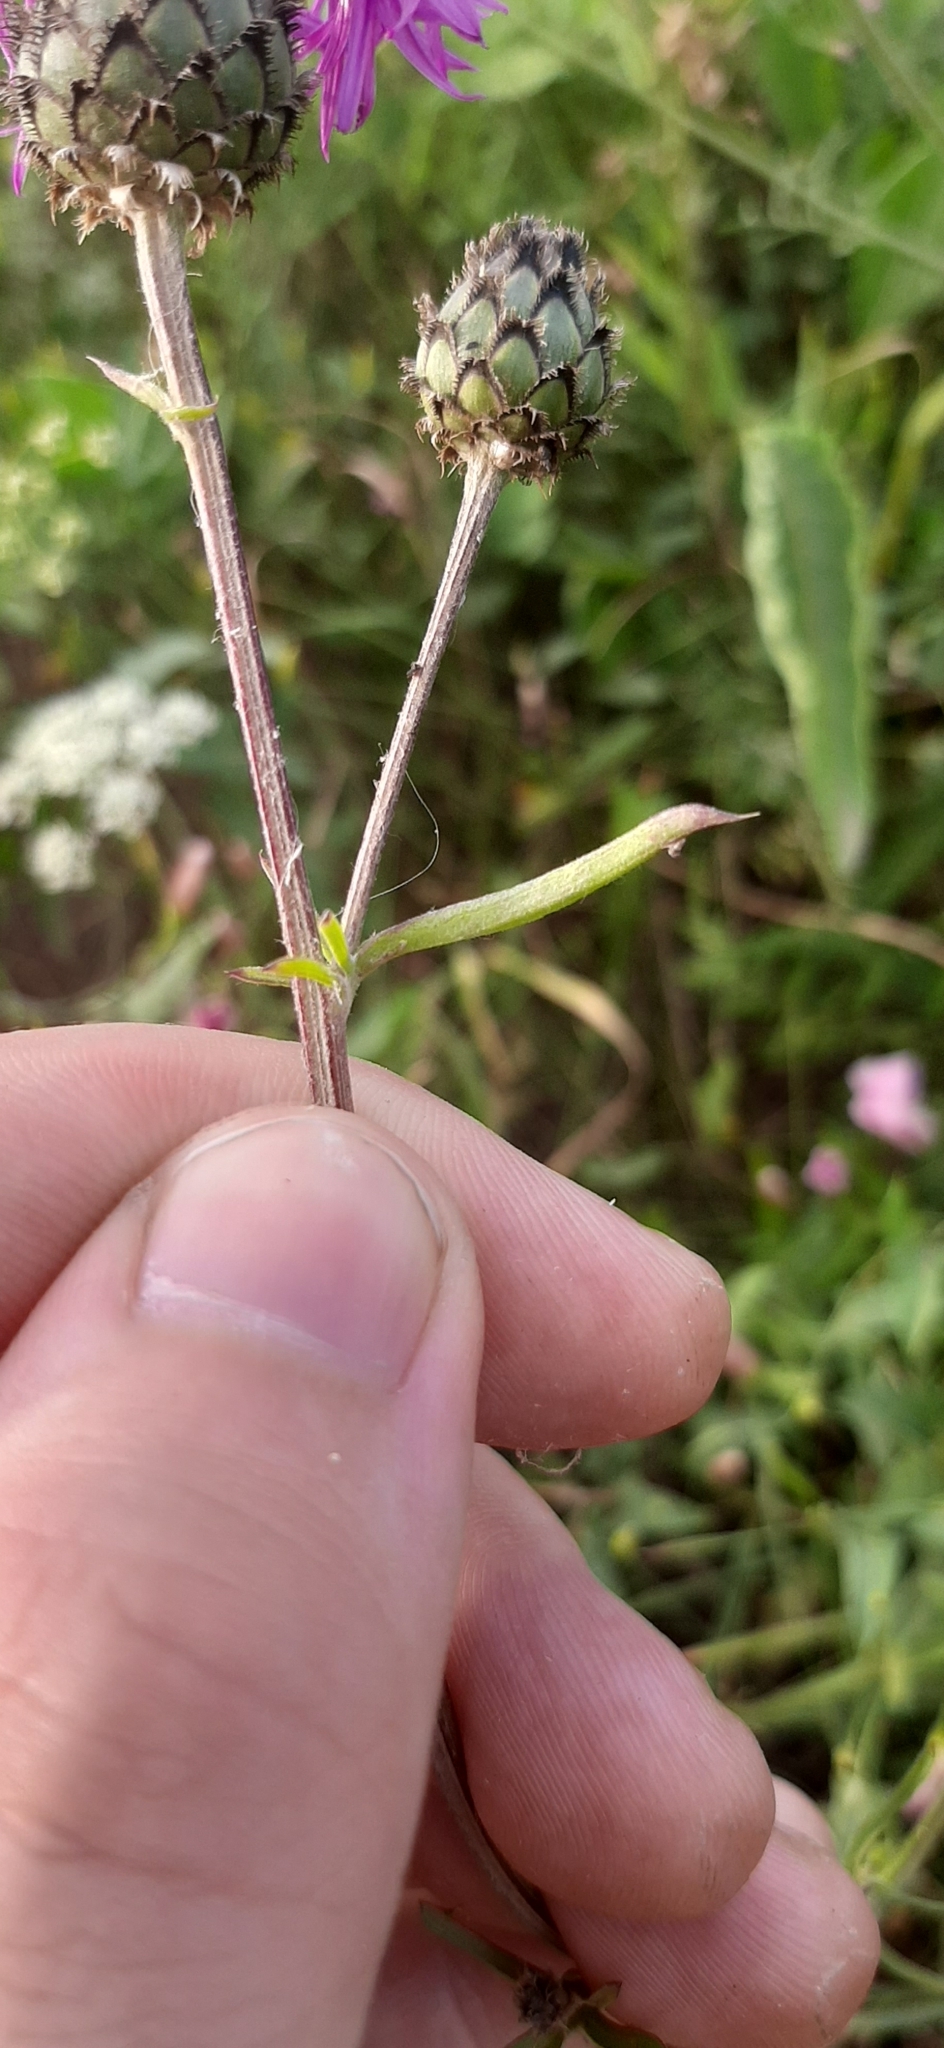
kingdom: Plantae
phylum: Tracheophyta
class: Magnoliopsida
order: Asterales
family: Asteraceae
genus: Centaurea
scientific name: Centaurea scabiosa
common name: Greater knapweed
